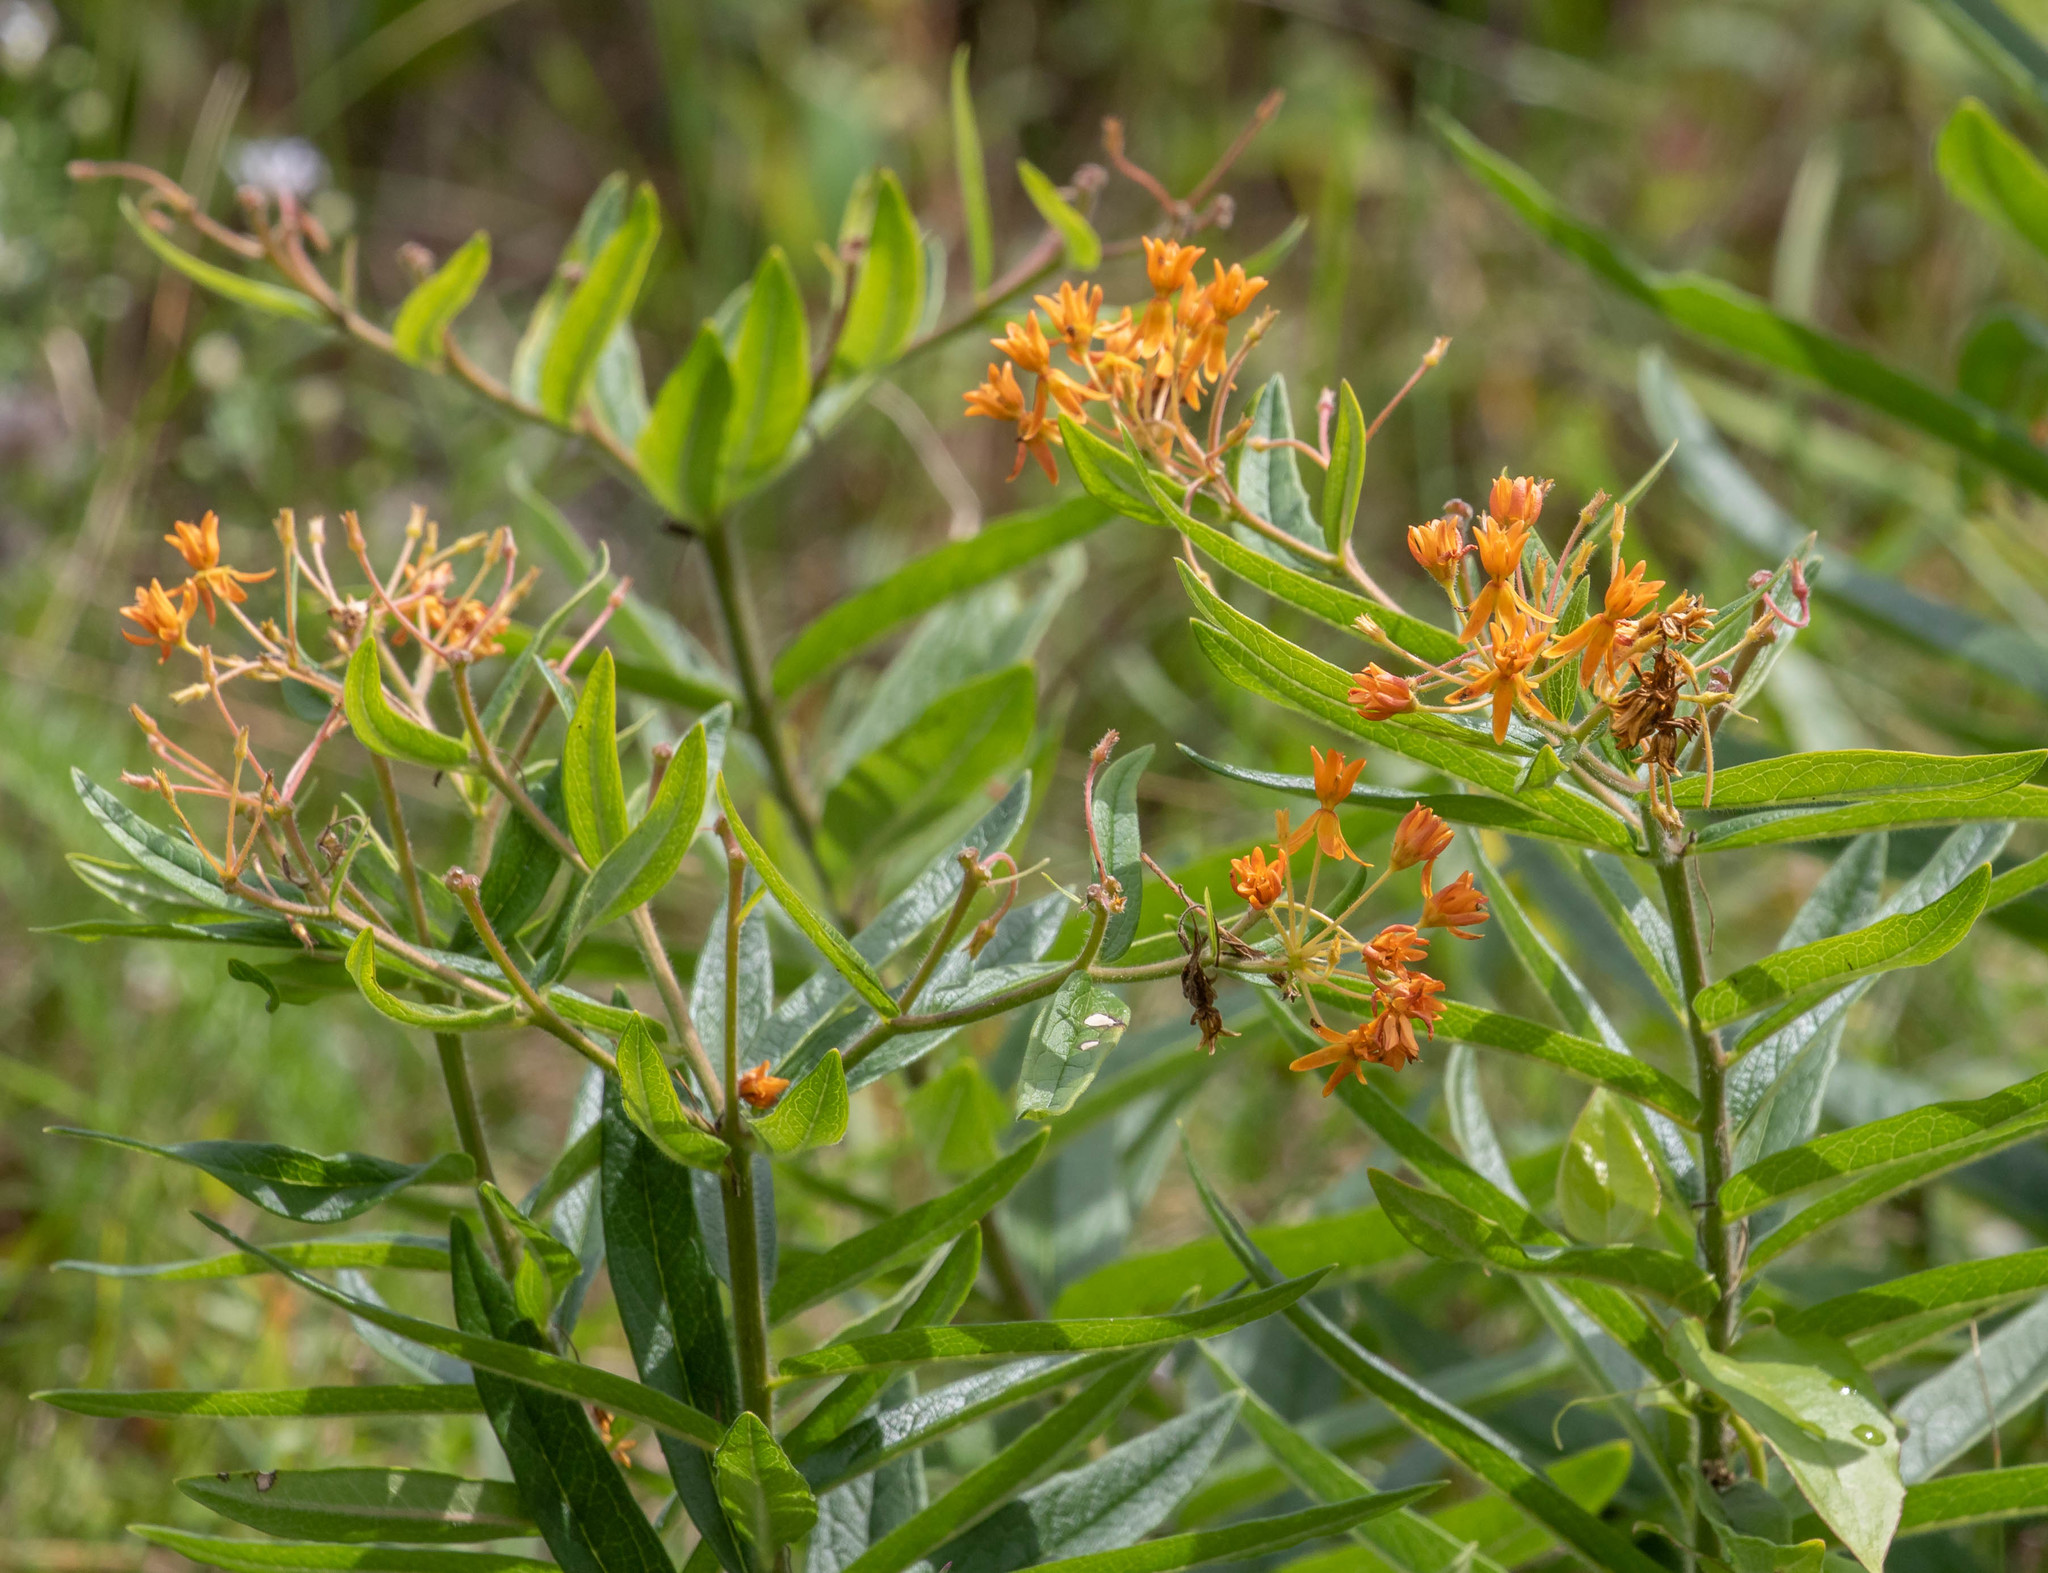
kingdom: Plantae
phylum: Tracheophyta
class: Magnoliopsida
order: Gentianales
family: Apocynaceae
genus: Asclepias
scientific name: Asclepias tuberosa
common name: Butterfly milkweed
